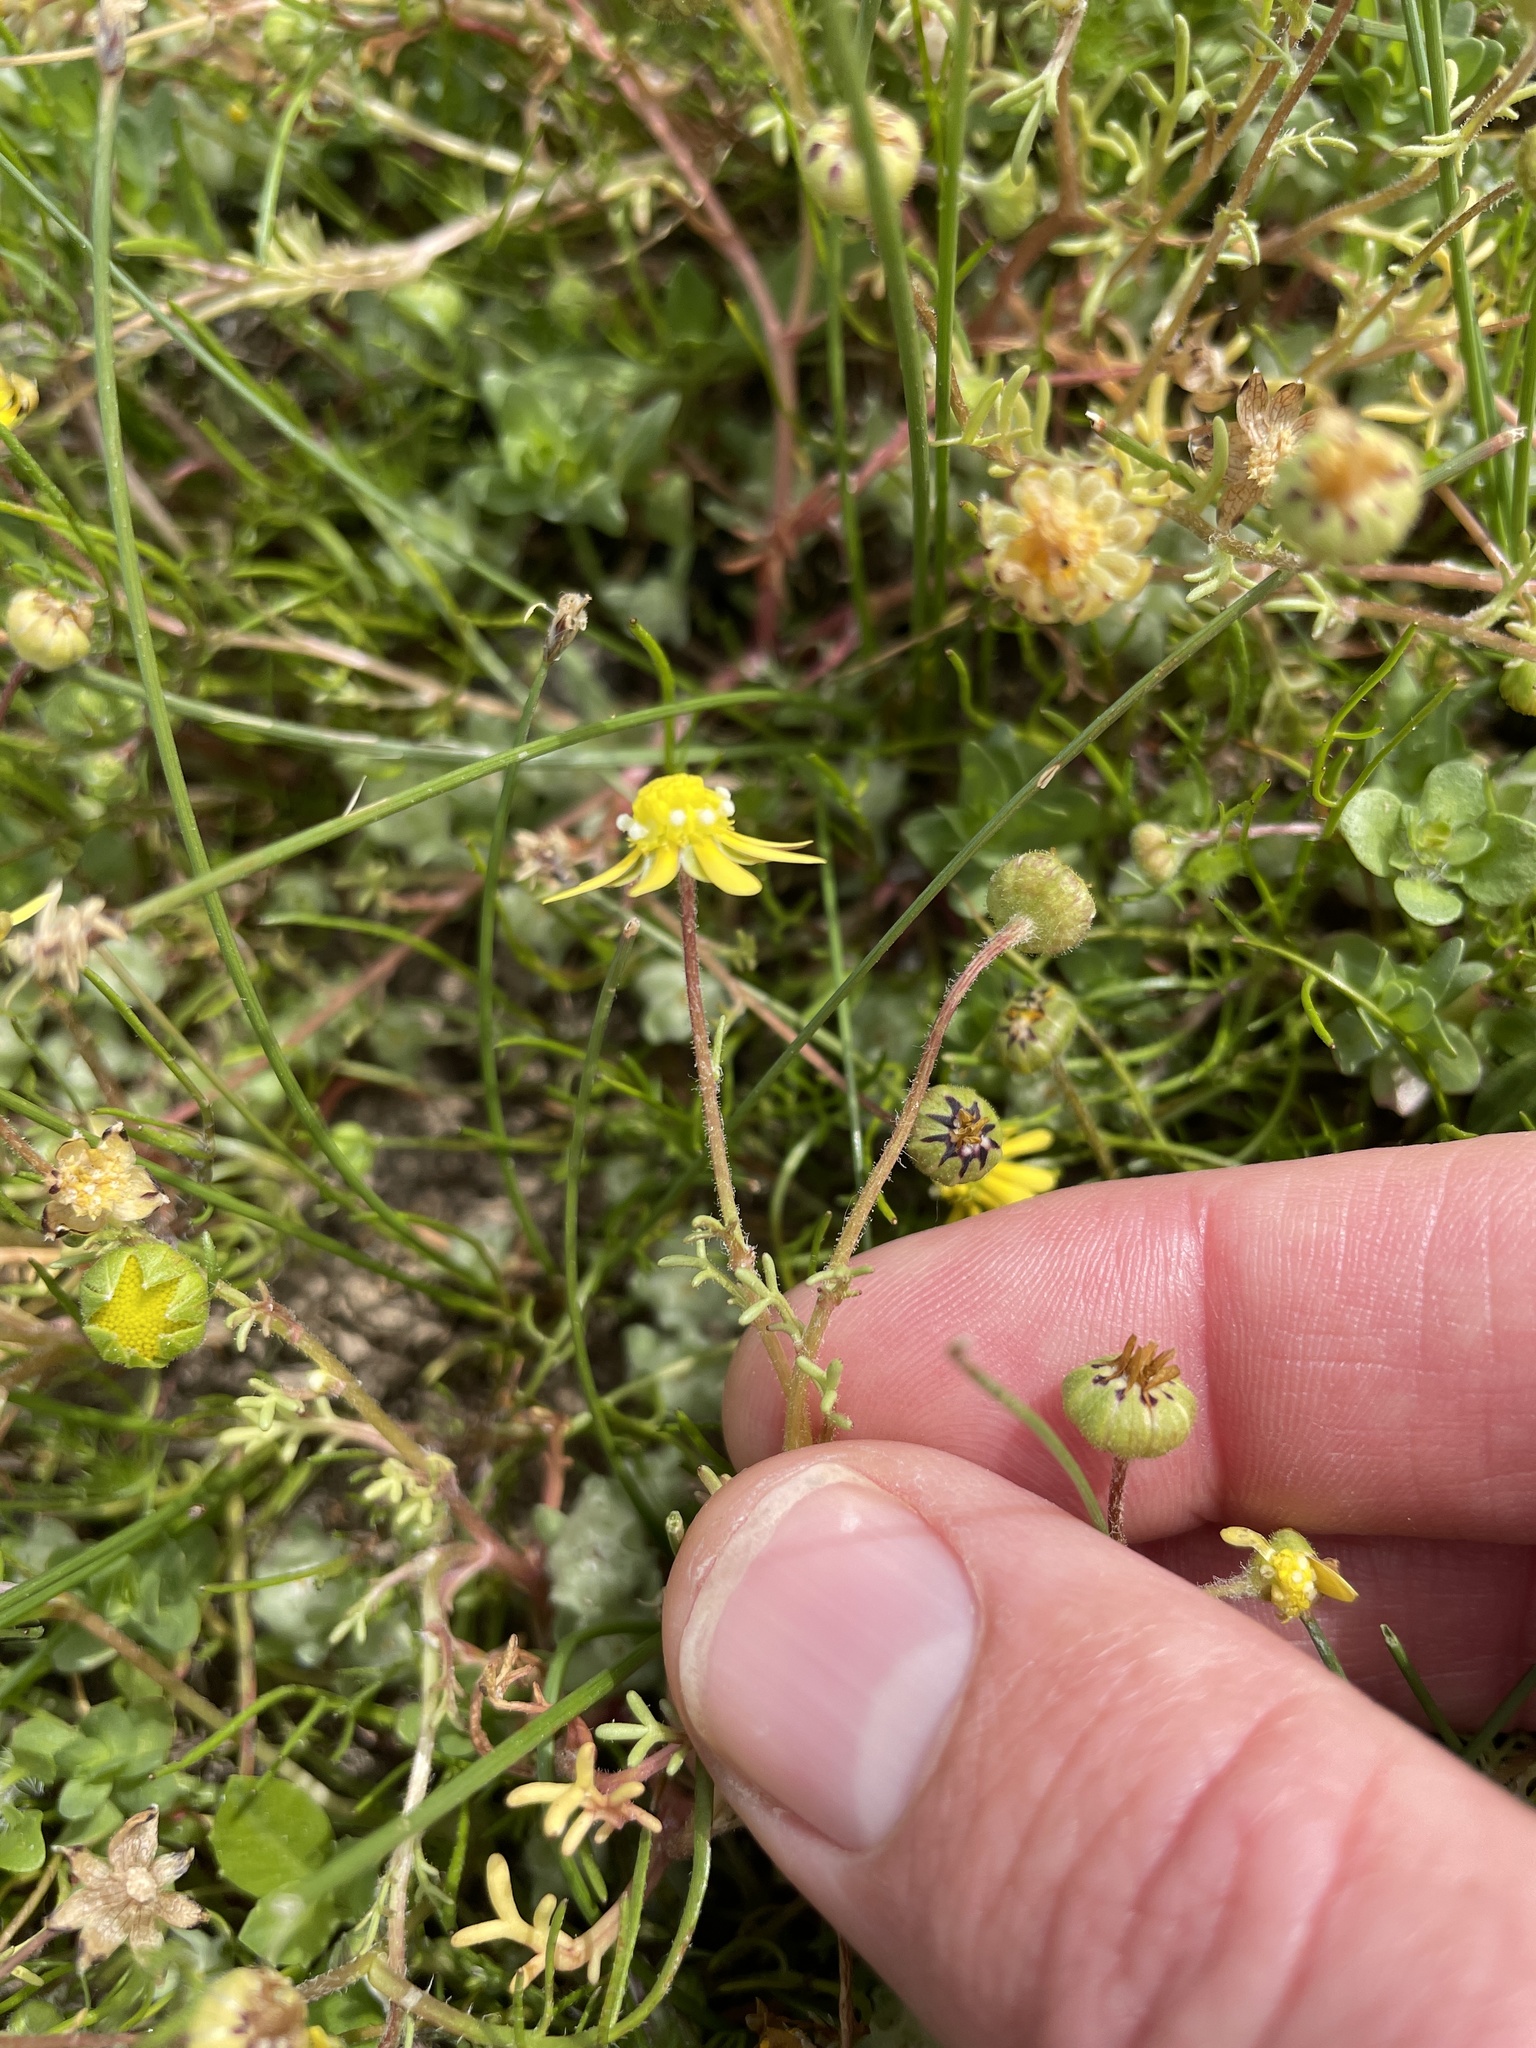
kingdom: Plantae
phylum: Tracheophyta
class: Magnoliopsida
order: Asterales
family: Asteraceae
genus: Blennosperma
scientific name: Blennosperma nanum
